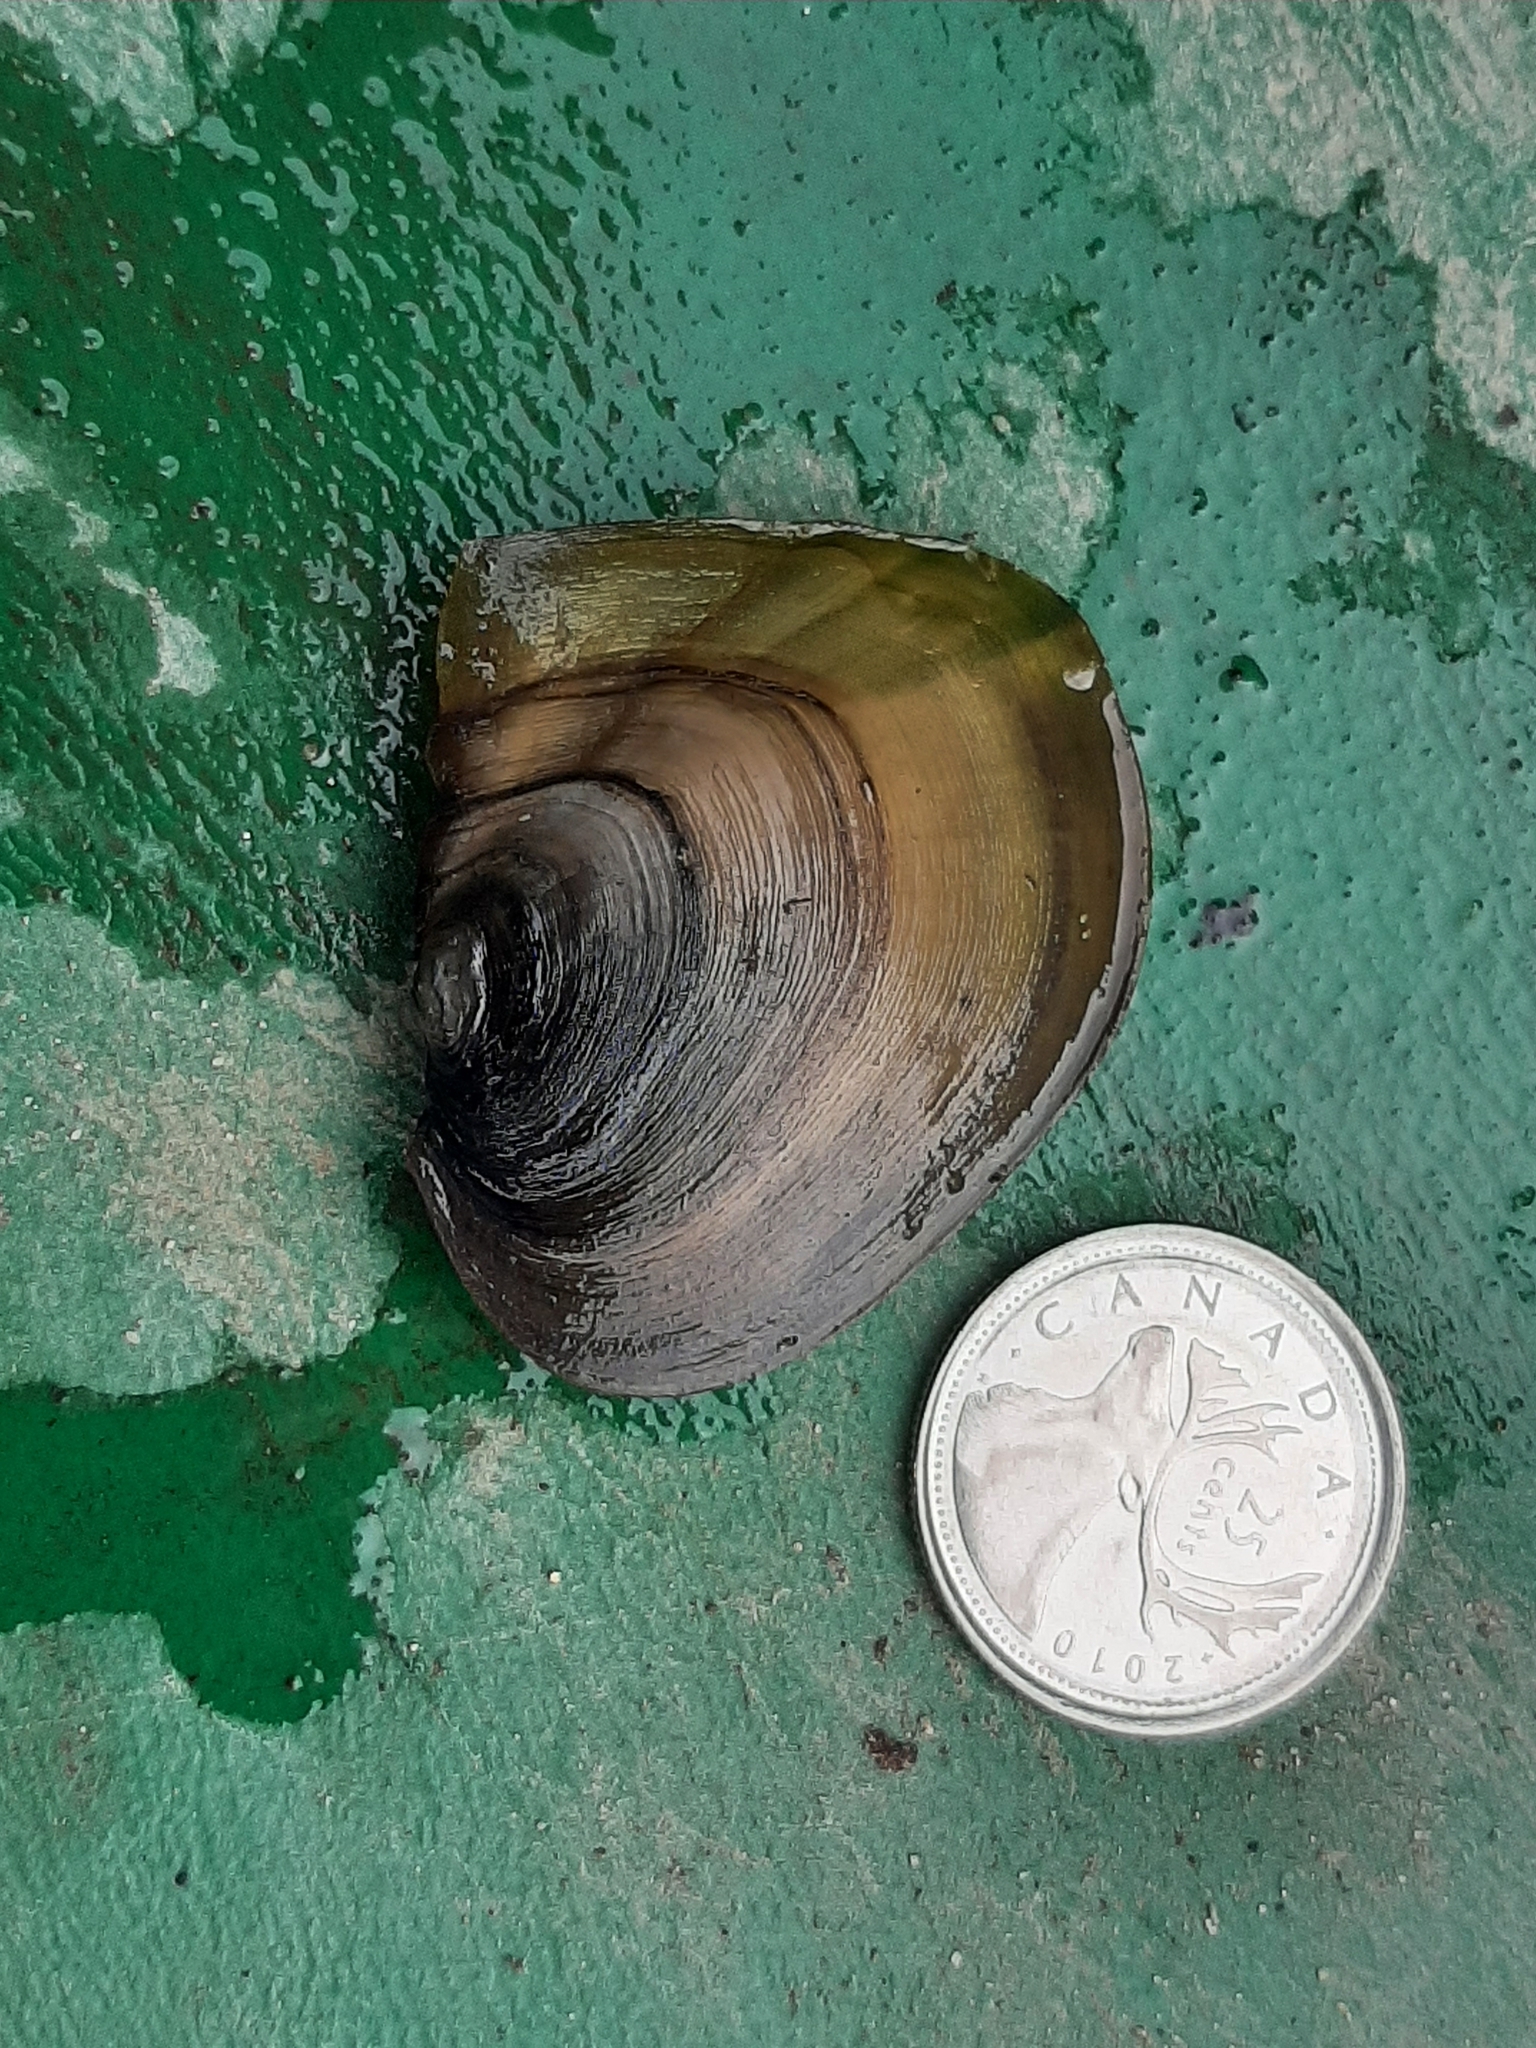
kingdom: Animalia
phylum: Mollusca
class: Bivalvia
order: Unionida
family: Unionidae
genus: Lasmigona
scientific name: Lasmigona complanata
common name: White heelsplitter
